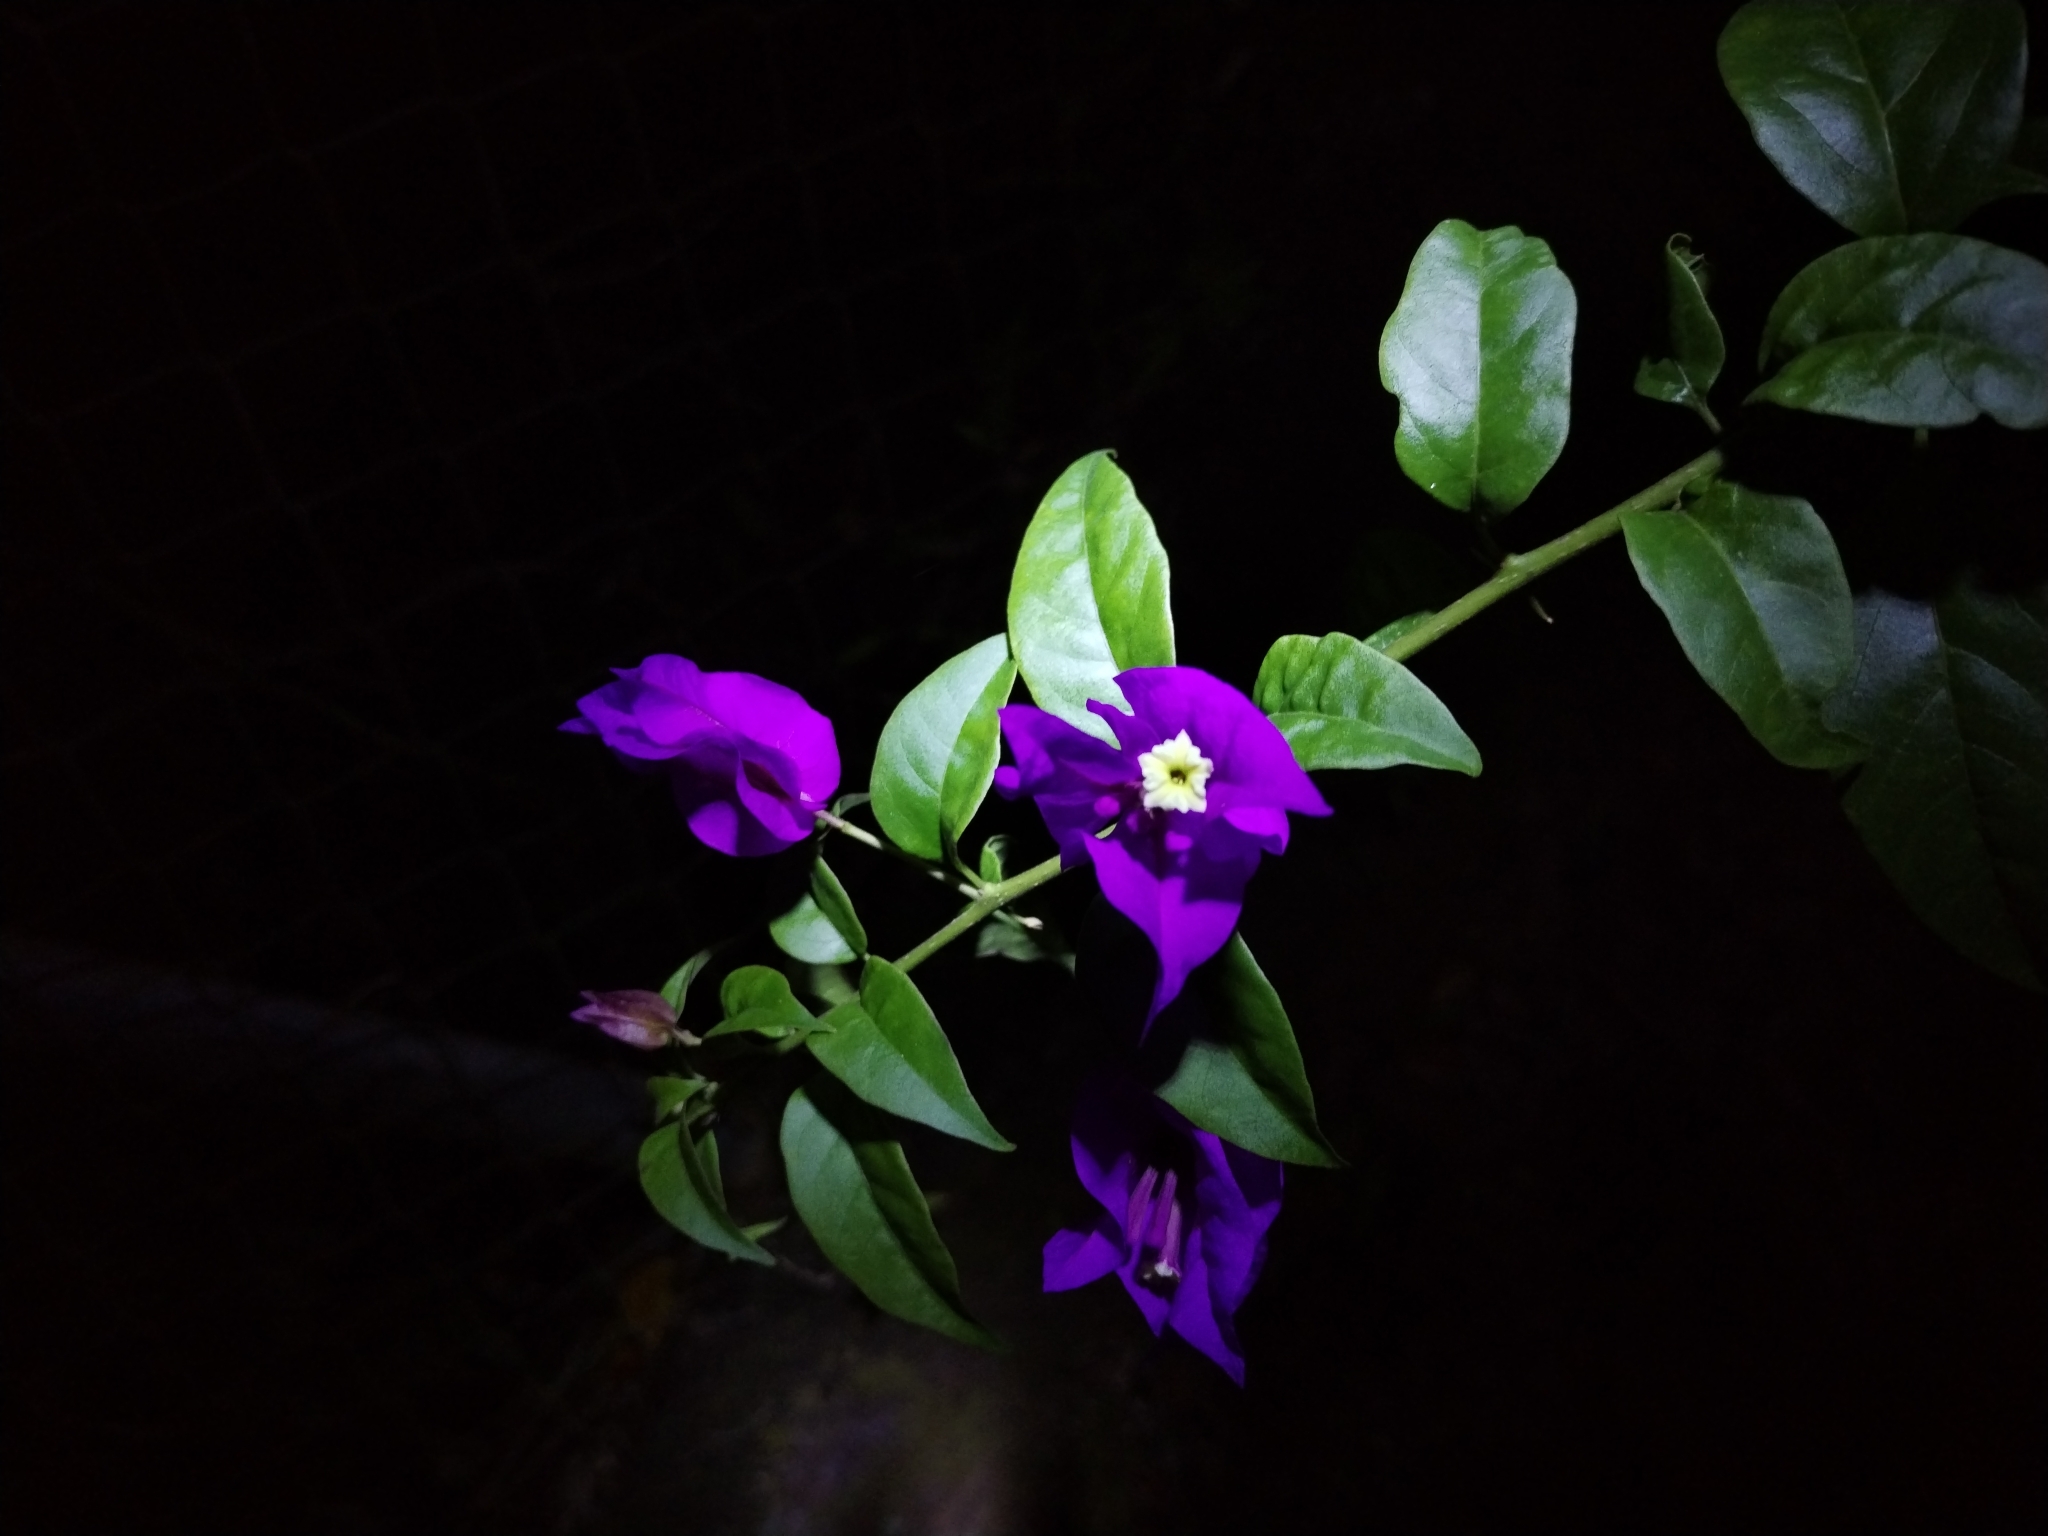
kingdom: Plantae
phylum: Tracheophyta
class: Magnoliopsida
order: Caryophyllales
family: Nyctaginaceae
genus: Bougainvillea
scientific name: Bougainvillea glabra
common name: Paperflower
